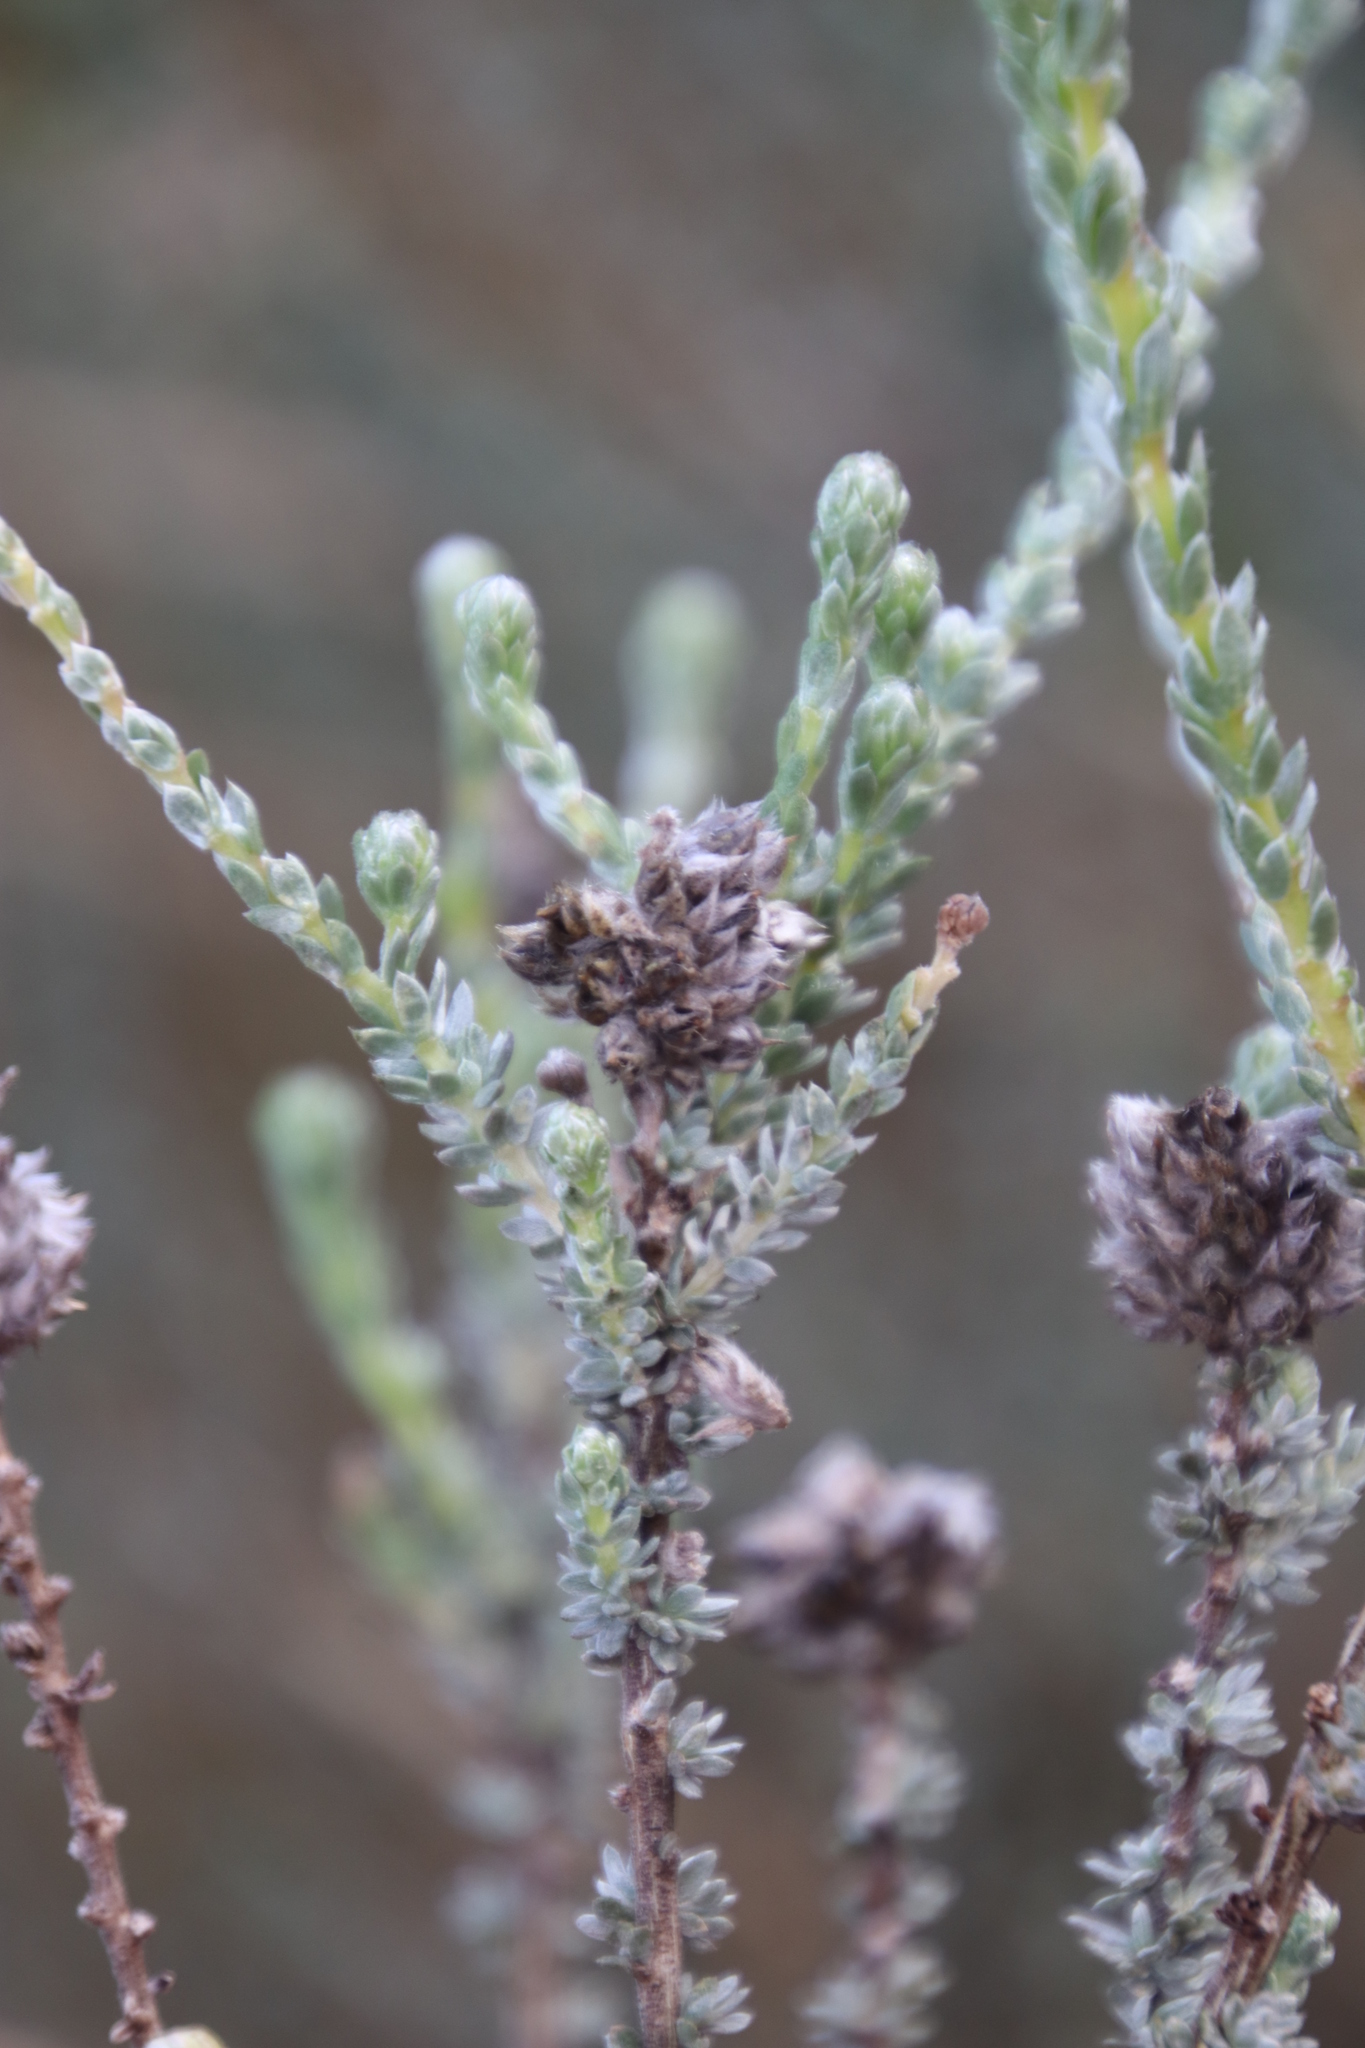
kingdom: Plantae
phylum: Tracheophyta
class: Magnoliopsida
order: Fabales
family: Fabaceae
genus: Aspalathus
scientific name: Aspalathus quinquefolia
